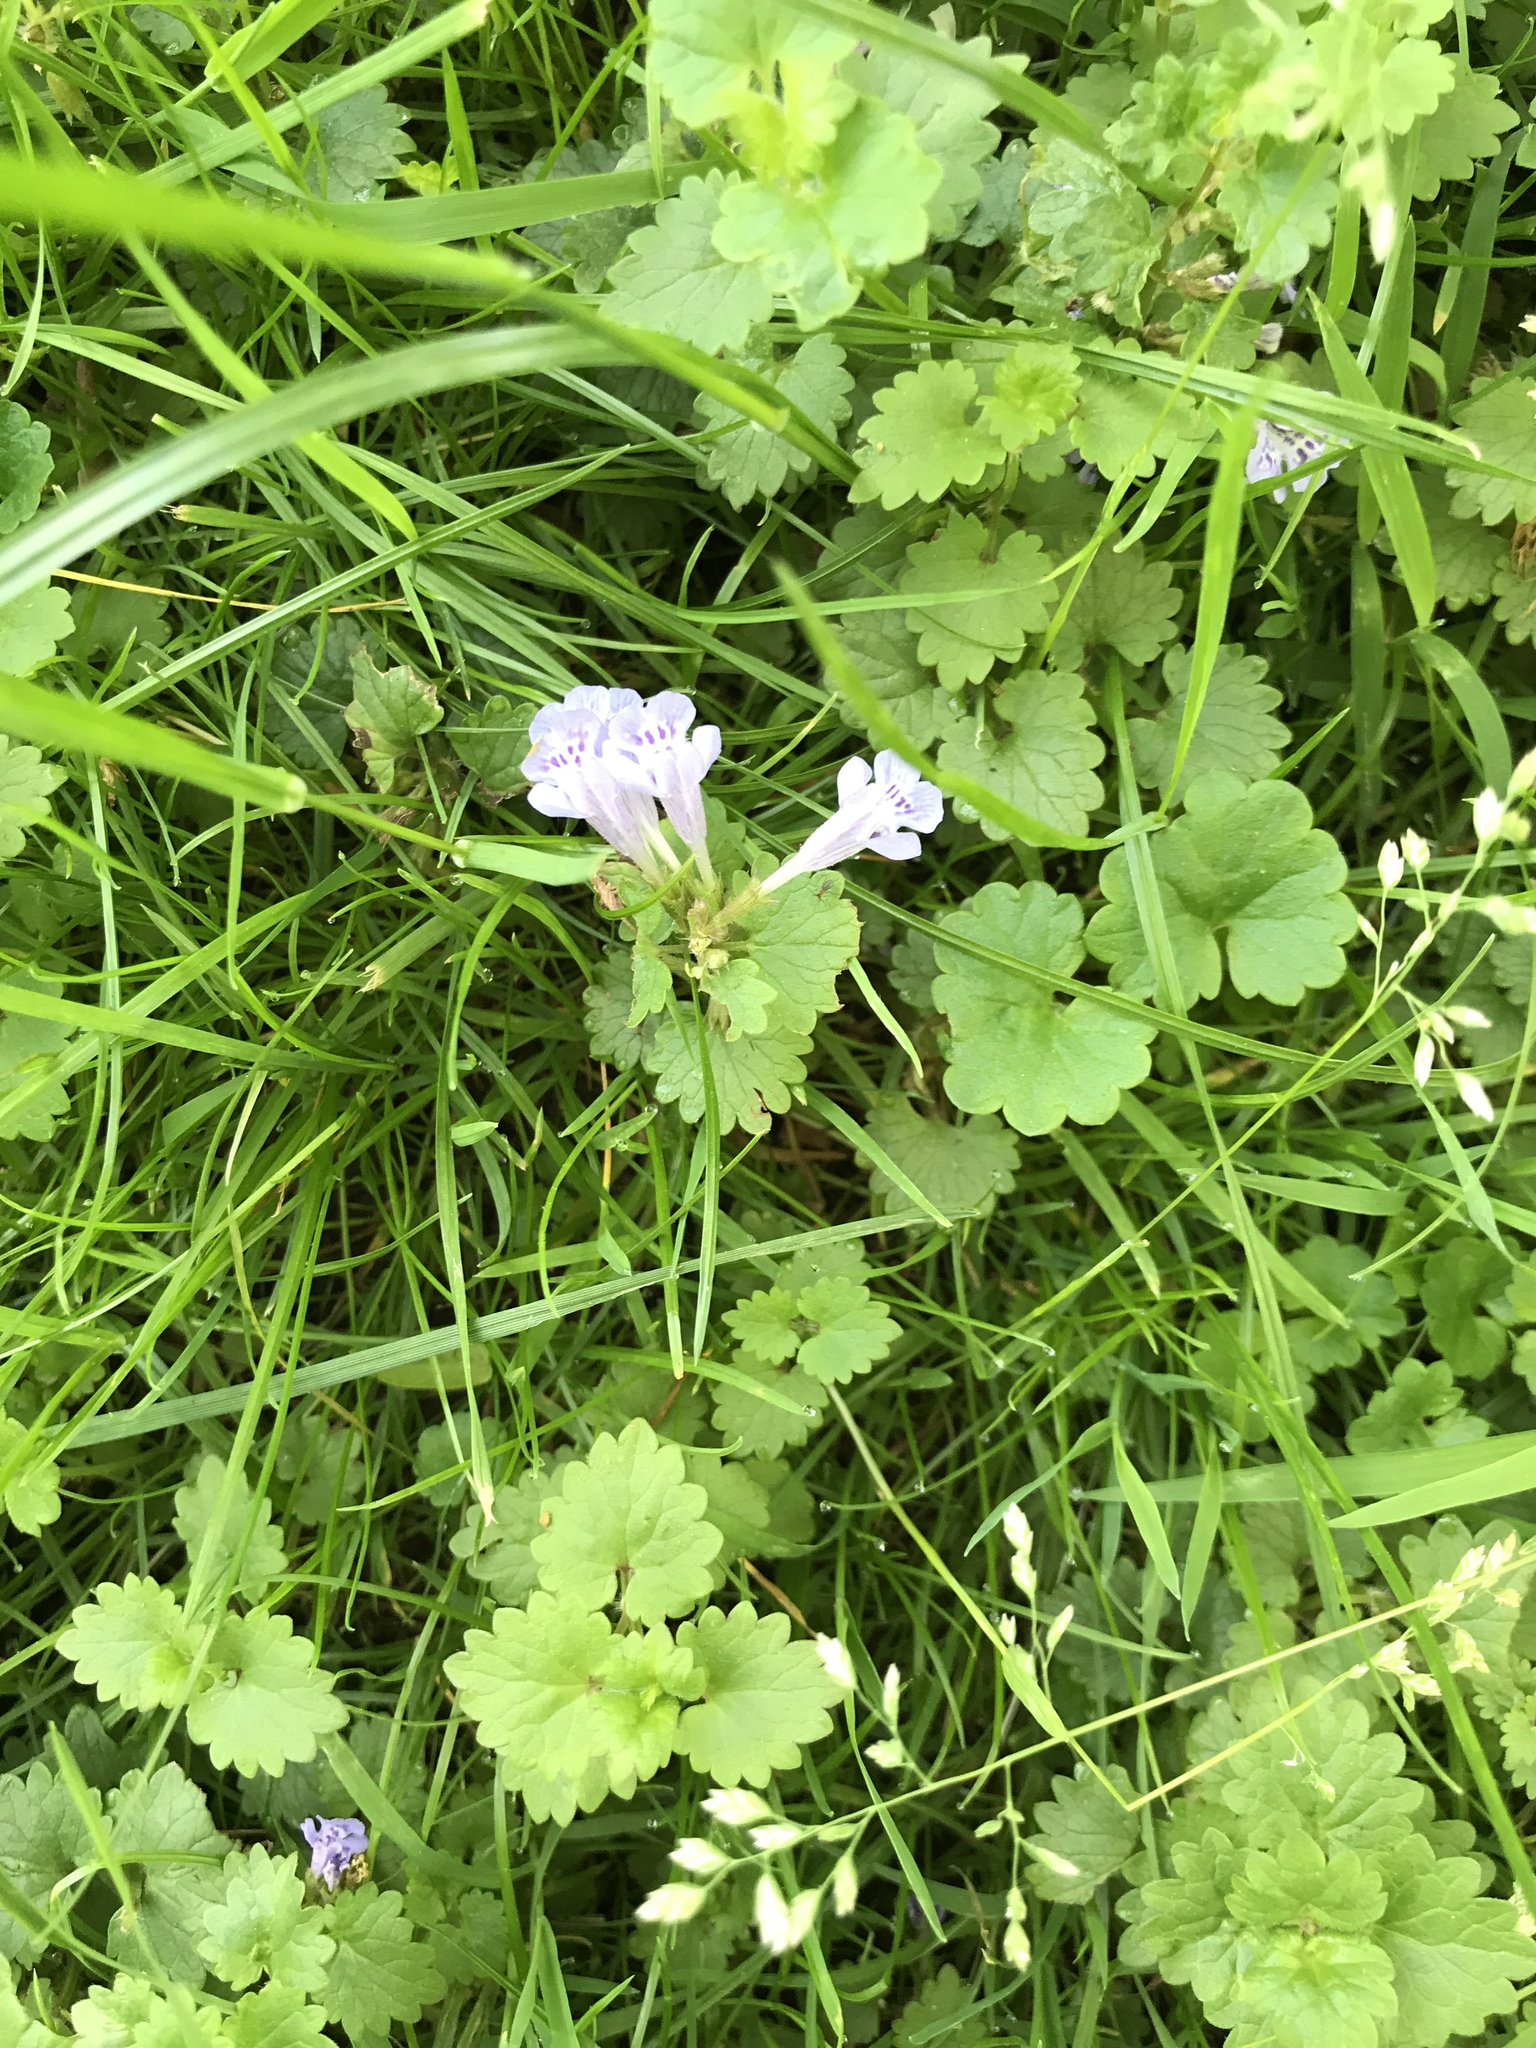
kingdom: Plantae
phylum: Tracheophyta
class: Magnoliopsida
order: Lamiales
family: Lamiaceae
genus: Glechoma
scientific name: Glechoma hederacea
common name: Ground ivy
